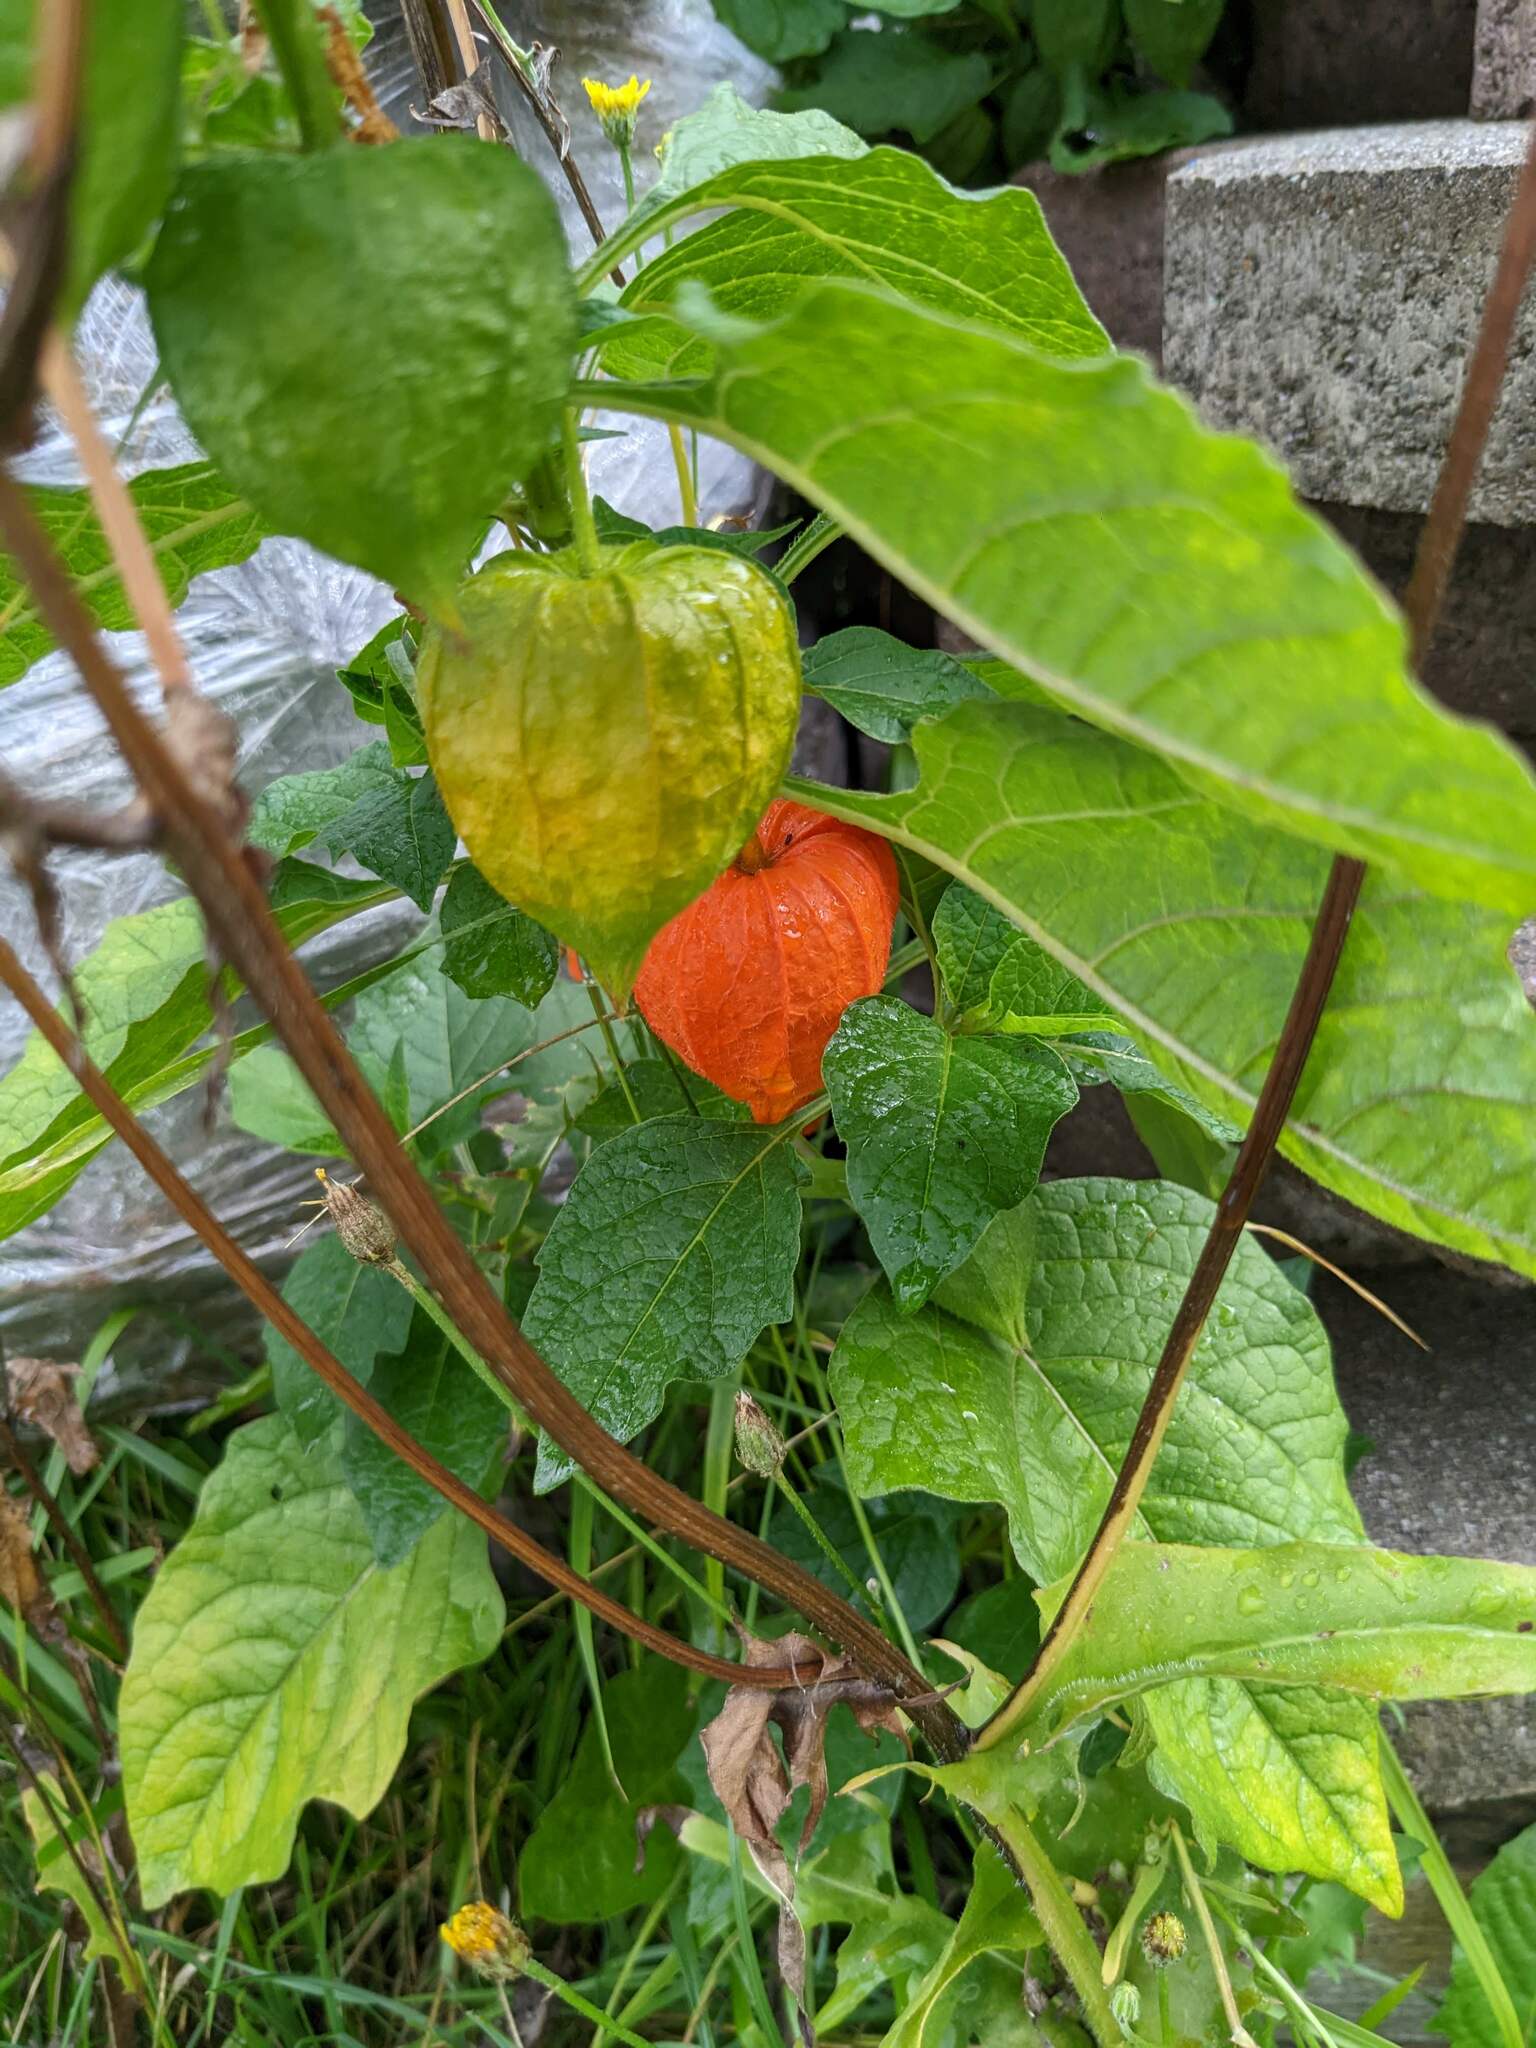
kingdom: Plantae
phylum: Tracheophyta
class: Magnoliopsida
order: Solanales
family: Solanaceae
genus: Alkekengi
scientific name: Alkekengi officinarum
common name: Japanese-lantern
